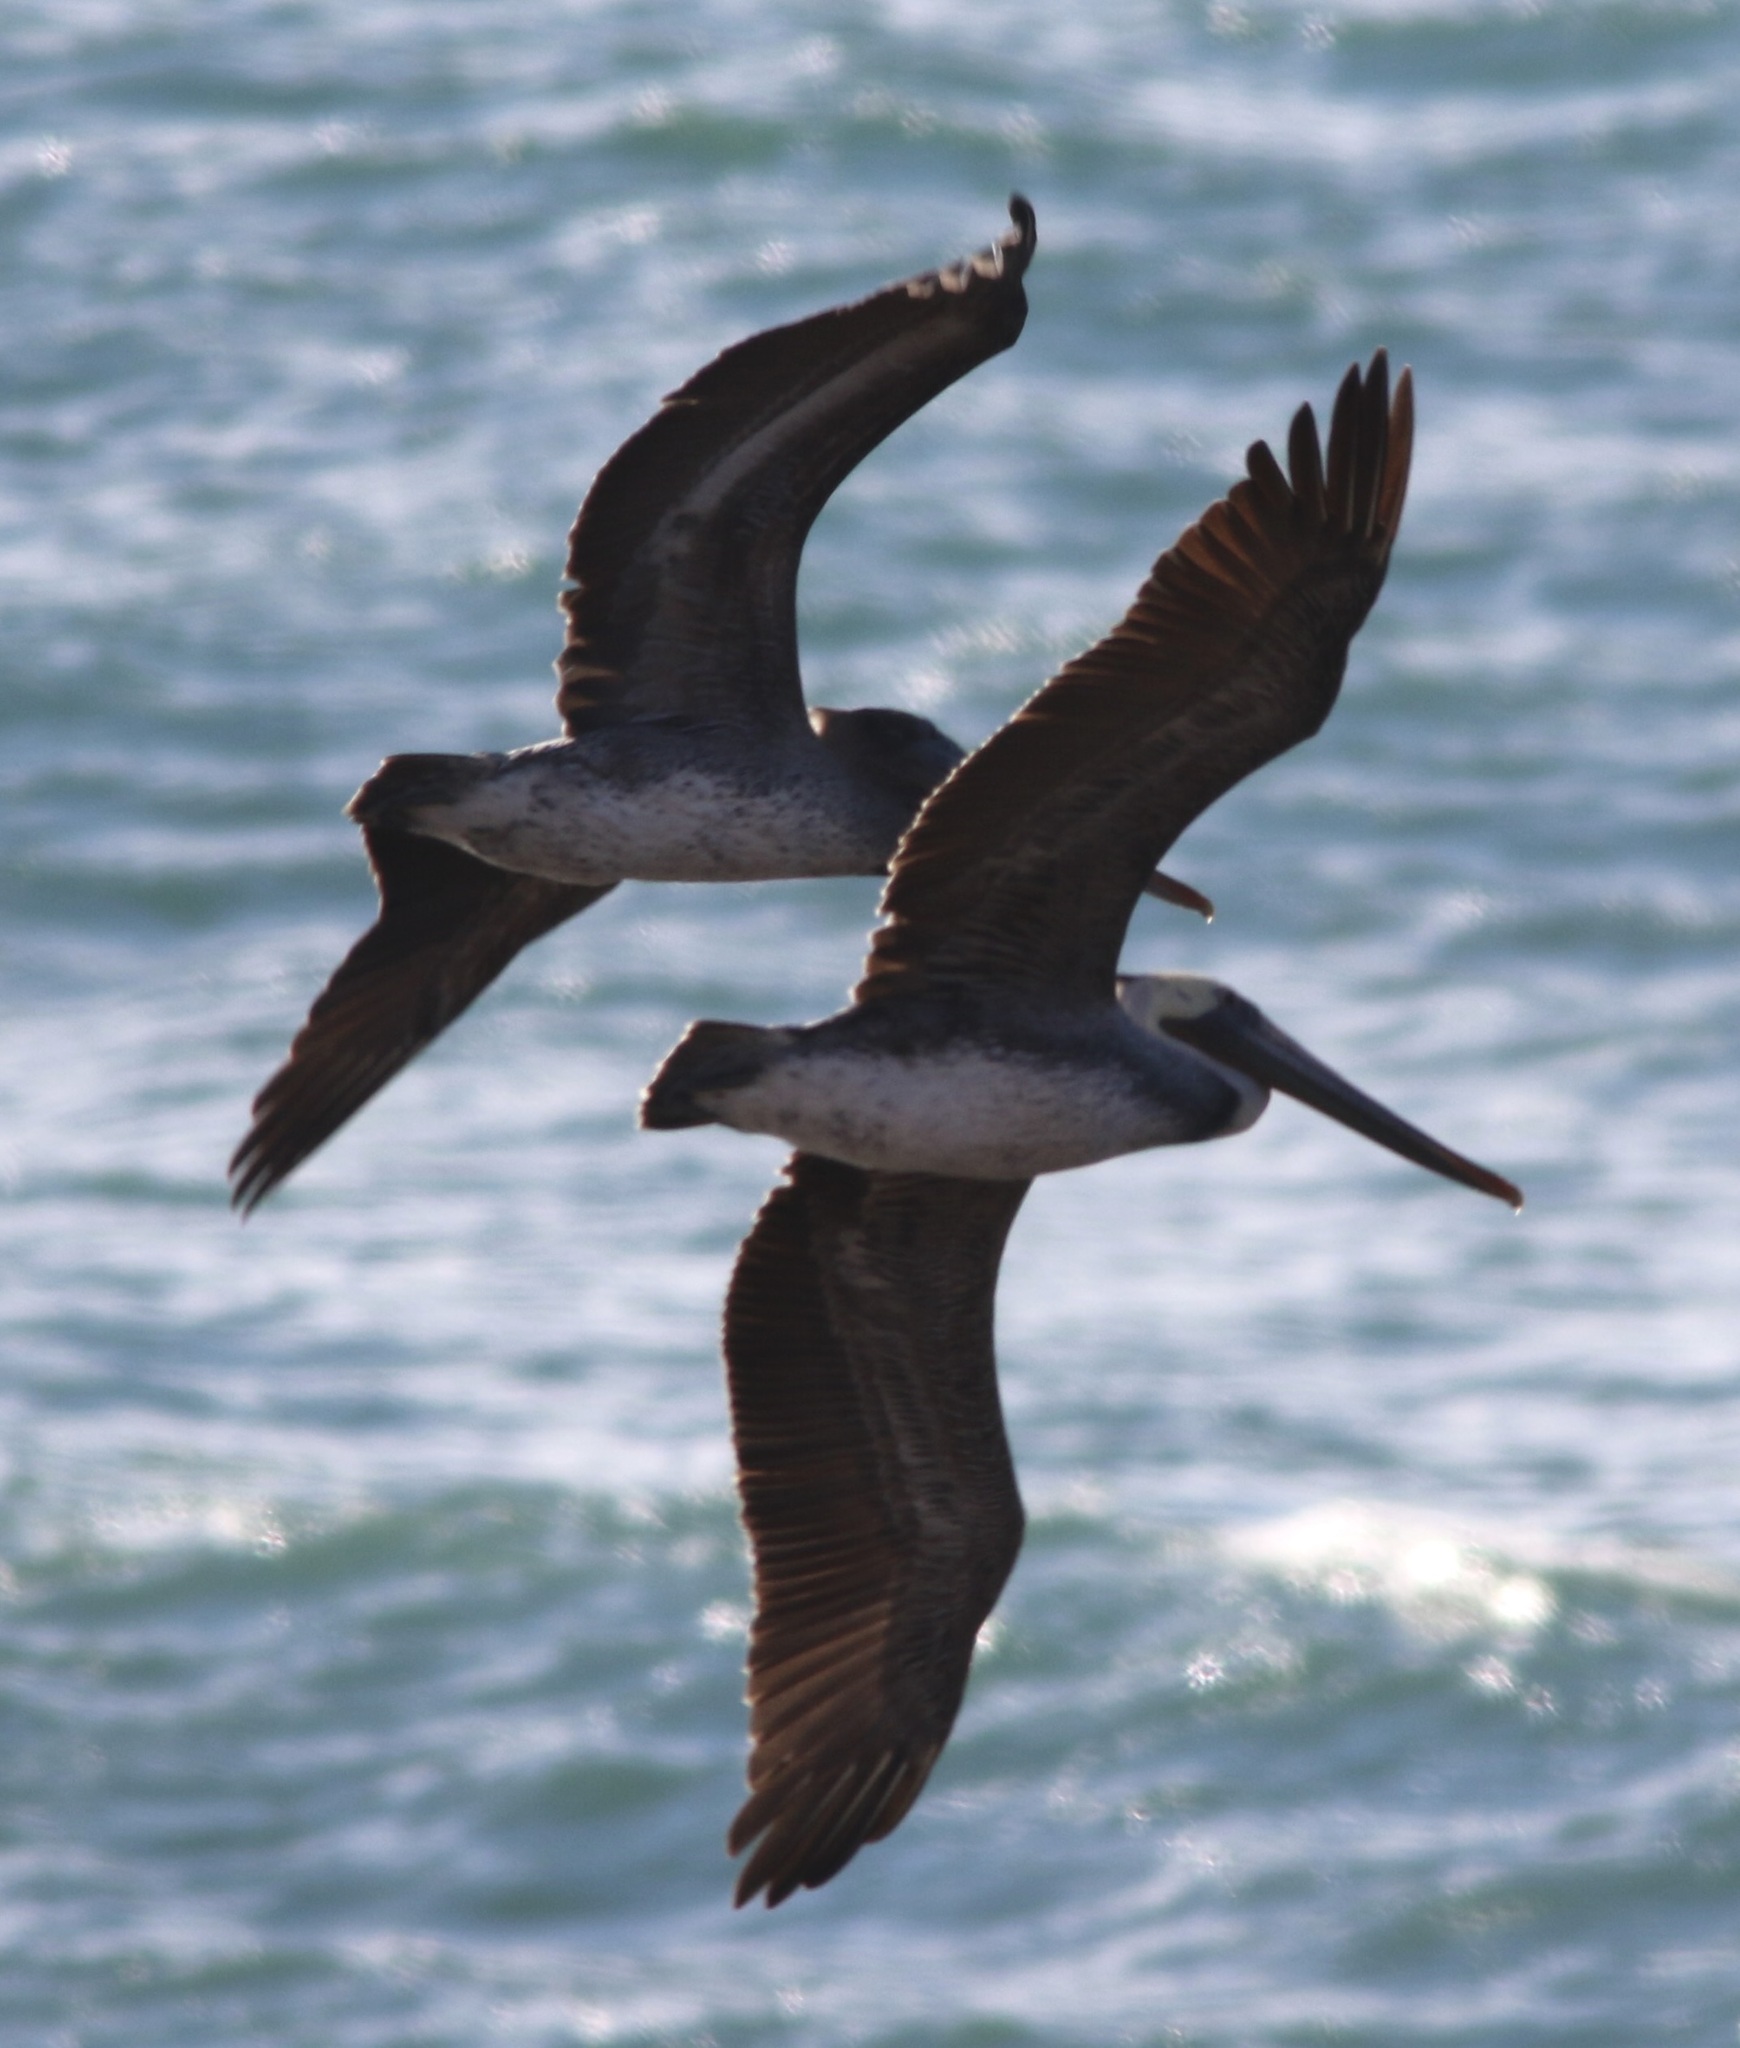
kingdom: Animalia
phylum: Chordata
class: Aves
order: Pelecaniformes
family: Pelecanidae
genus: Pelecanus
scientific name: Pelecanus occidentalis
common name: Brown pelican
